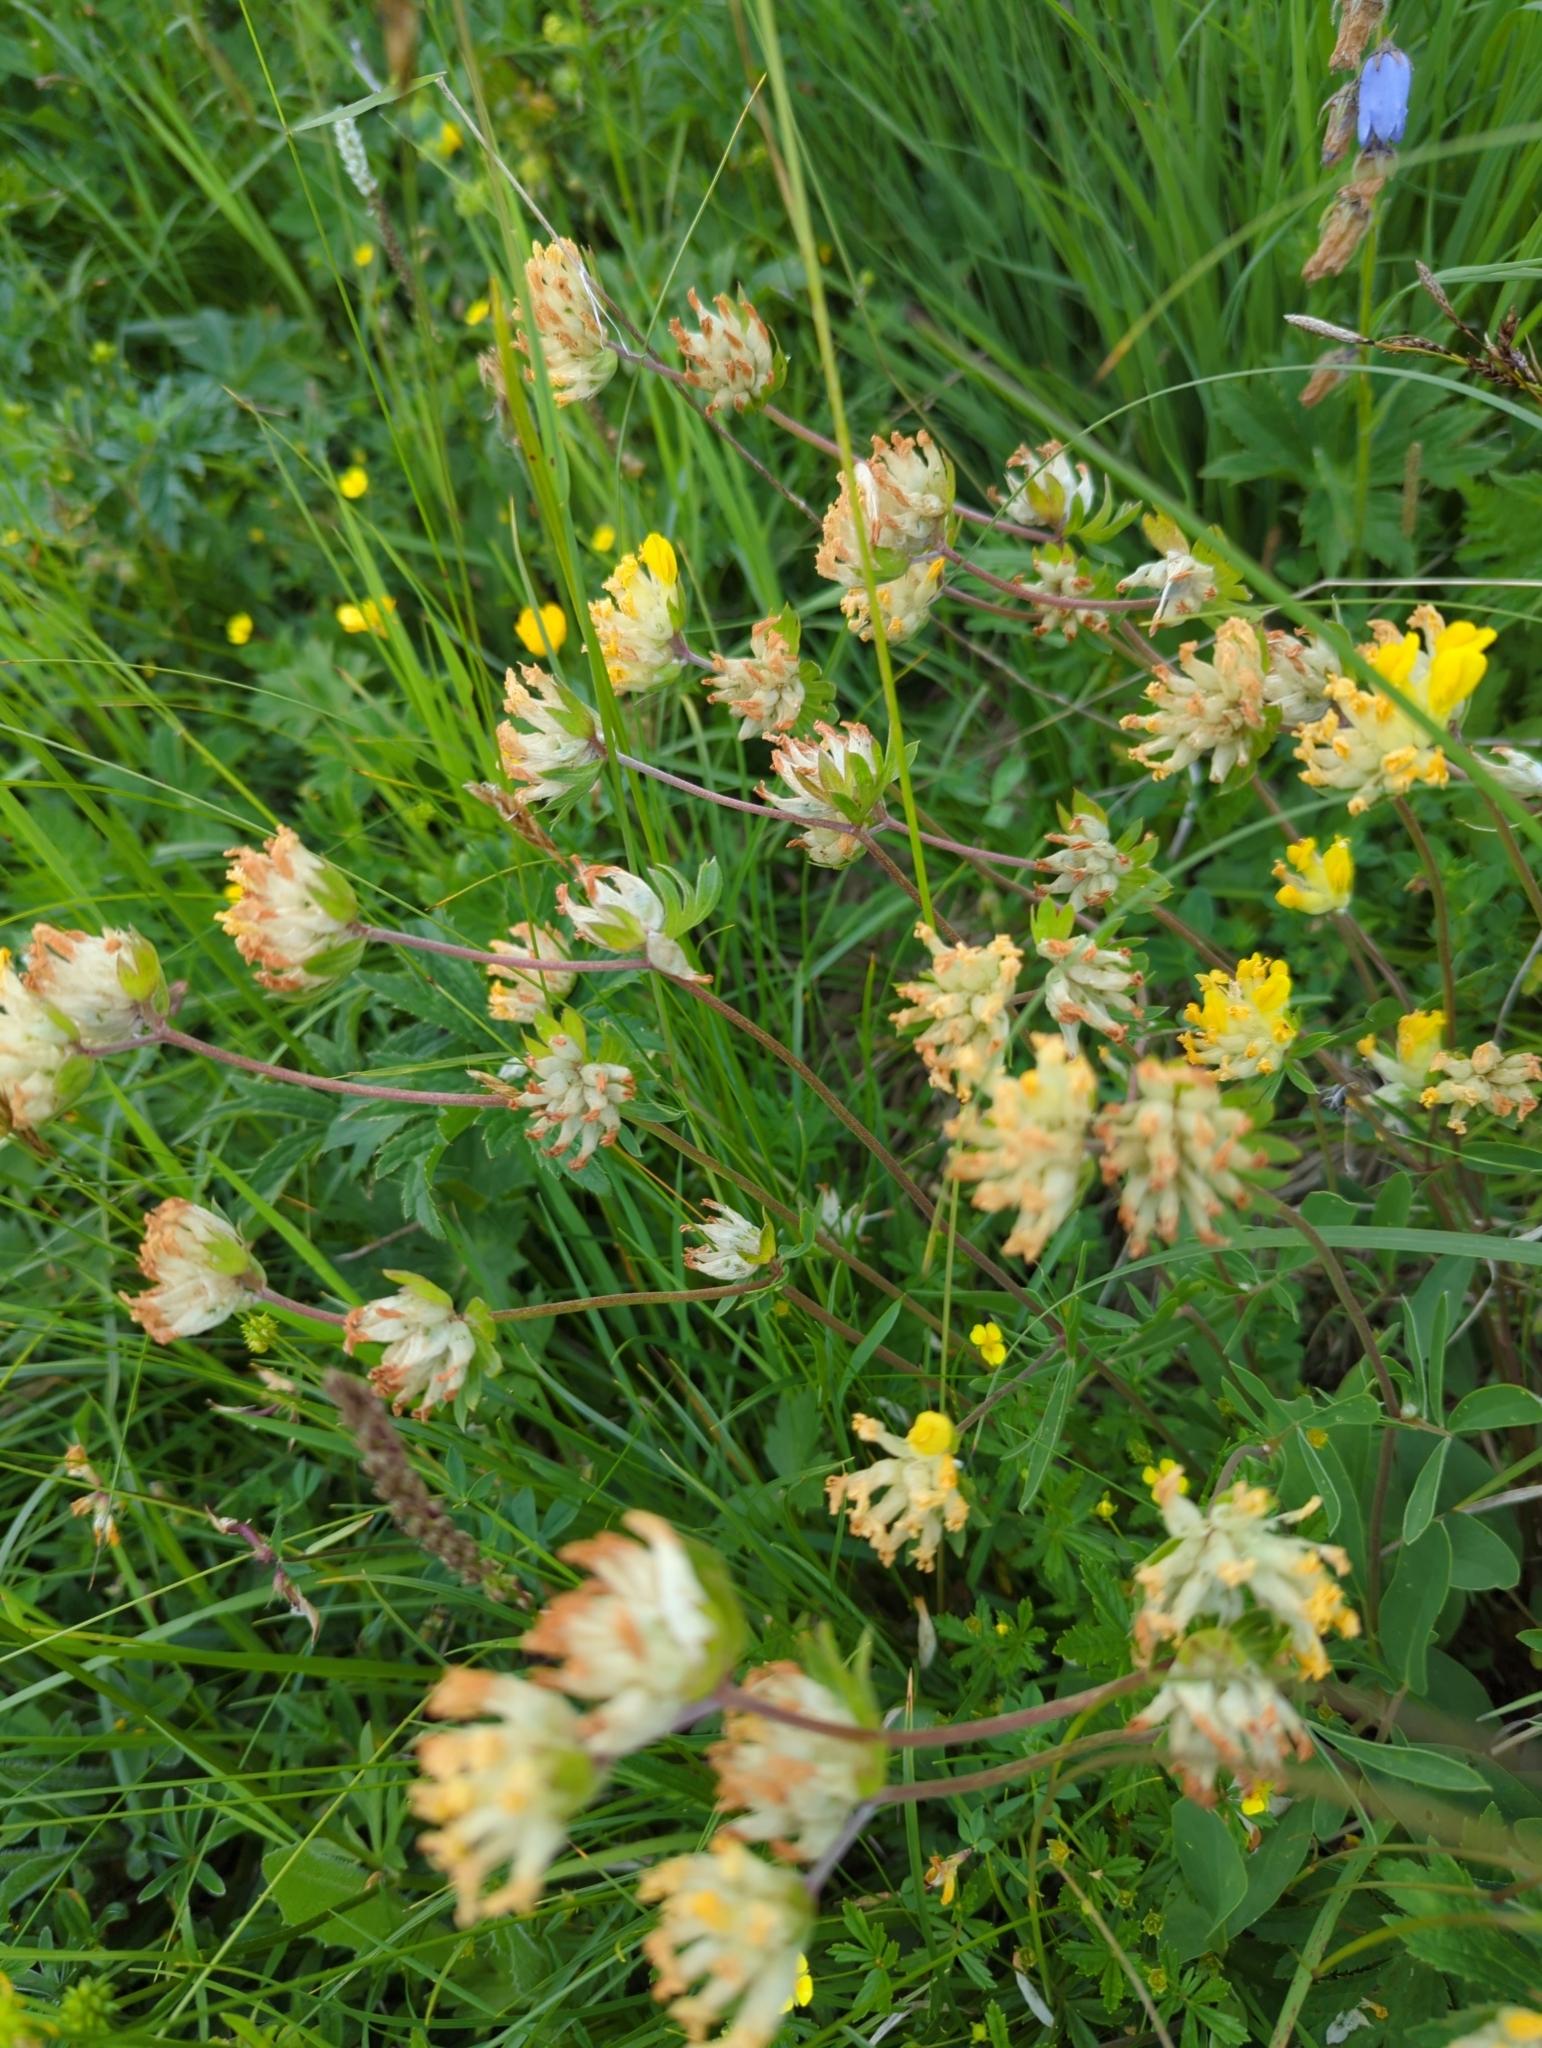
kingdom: Plantae
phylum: Tracheophyta
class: Magnoliopsida
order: Fabales
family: Fabaceae
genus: Anthyllis
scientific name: Anthyllis vulneraria
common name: Kidney vetch
